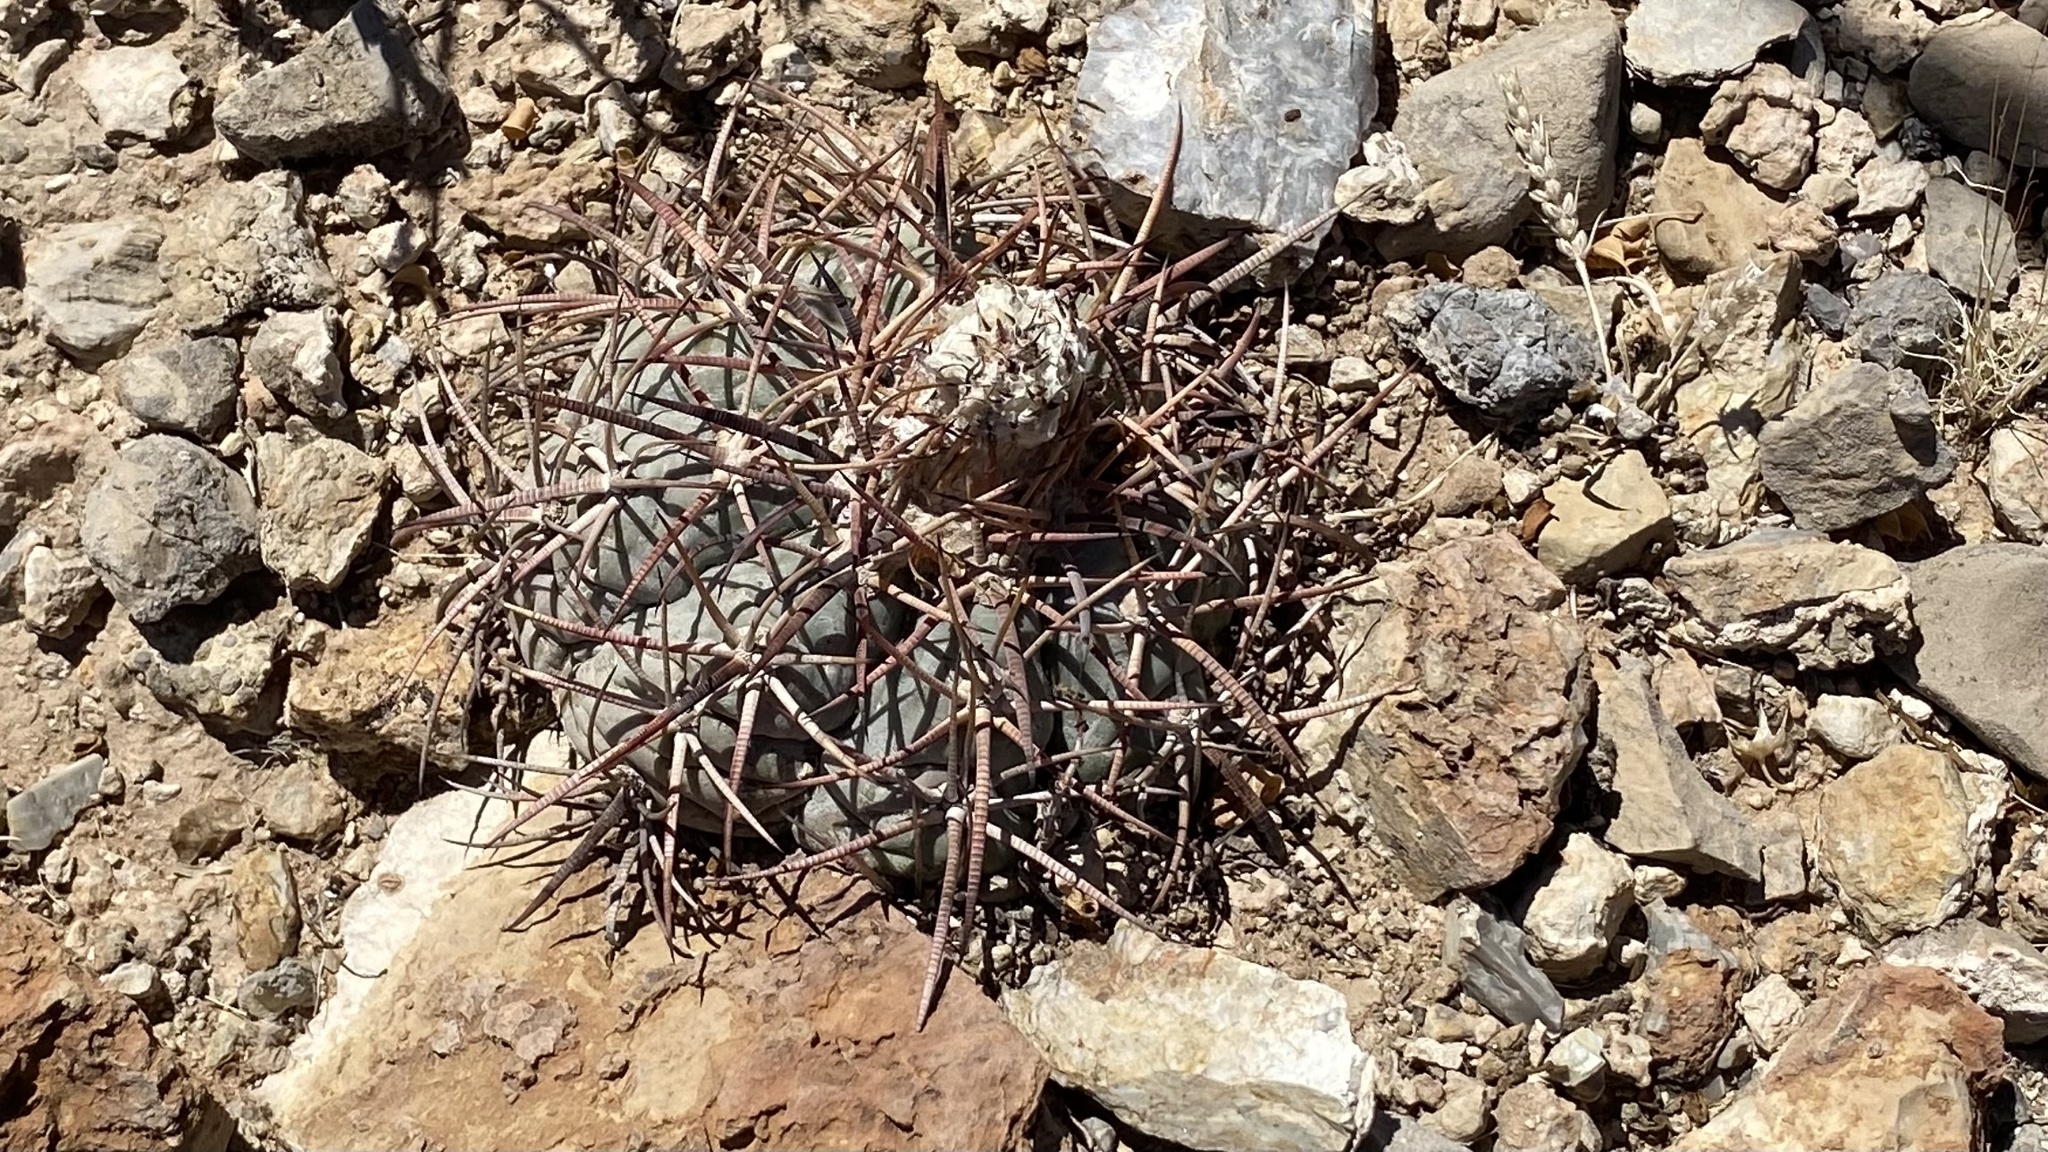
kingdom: Plantae
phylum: Tracheophyta
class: Magnoliopsida
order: Caryophyllales
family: Cactaceae
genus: Echinocactus
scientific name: Echinocactus horizonthalonius
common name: Devilshead
